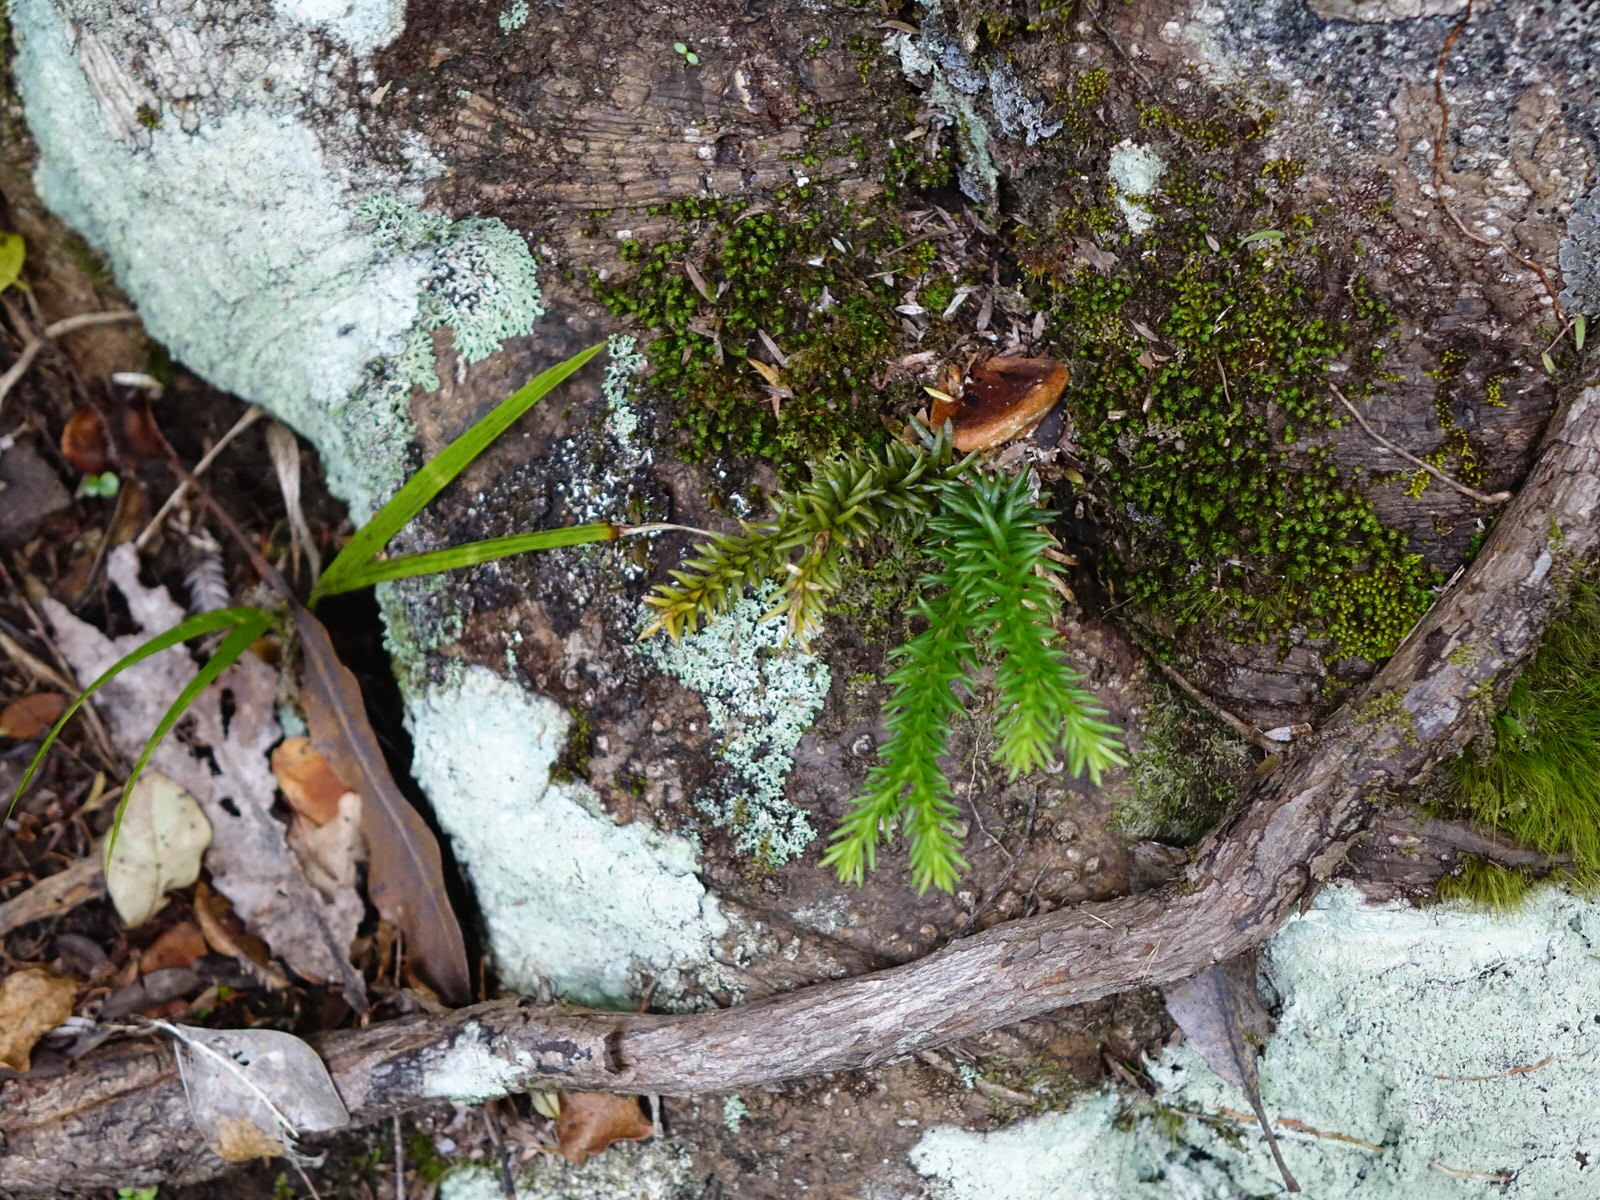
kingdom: Plantae
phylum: Tracheophyta
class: Lycopodiopsida
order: Lycopodiales
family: Lycopodiaceae
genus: Phlegmariurus
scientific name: Phlegmariurus varius
